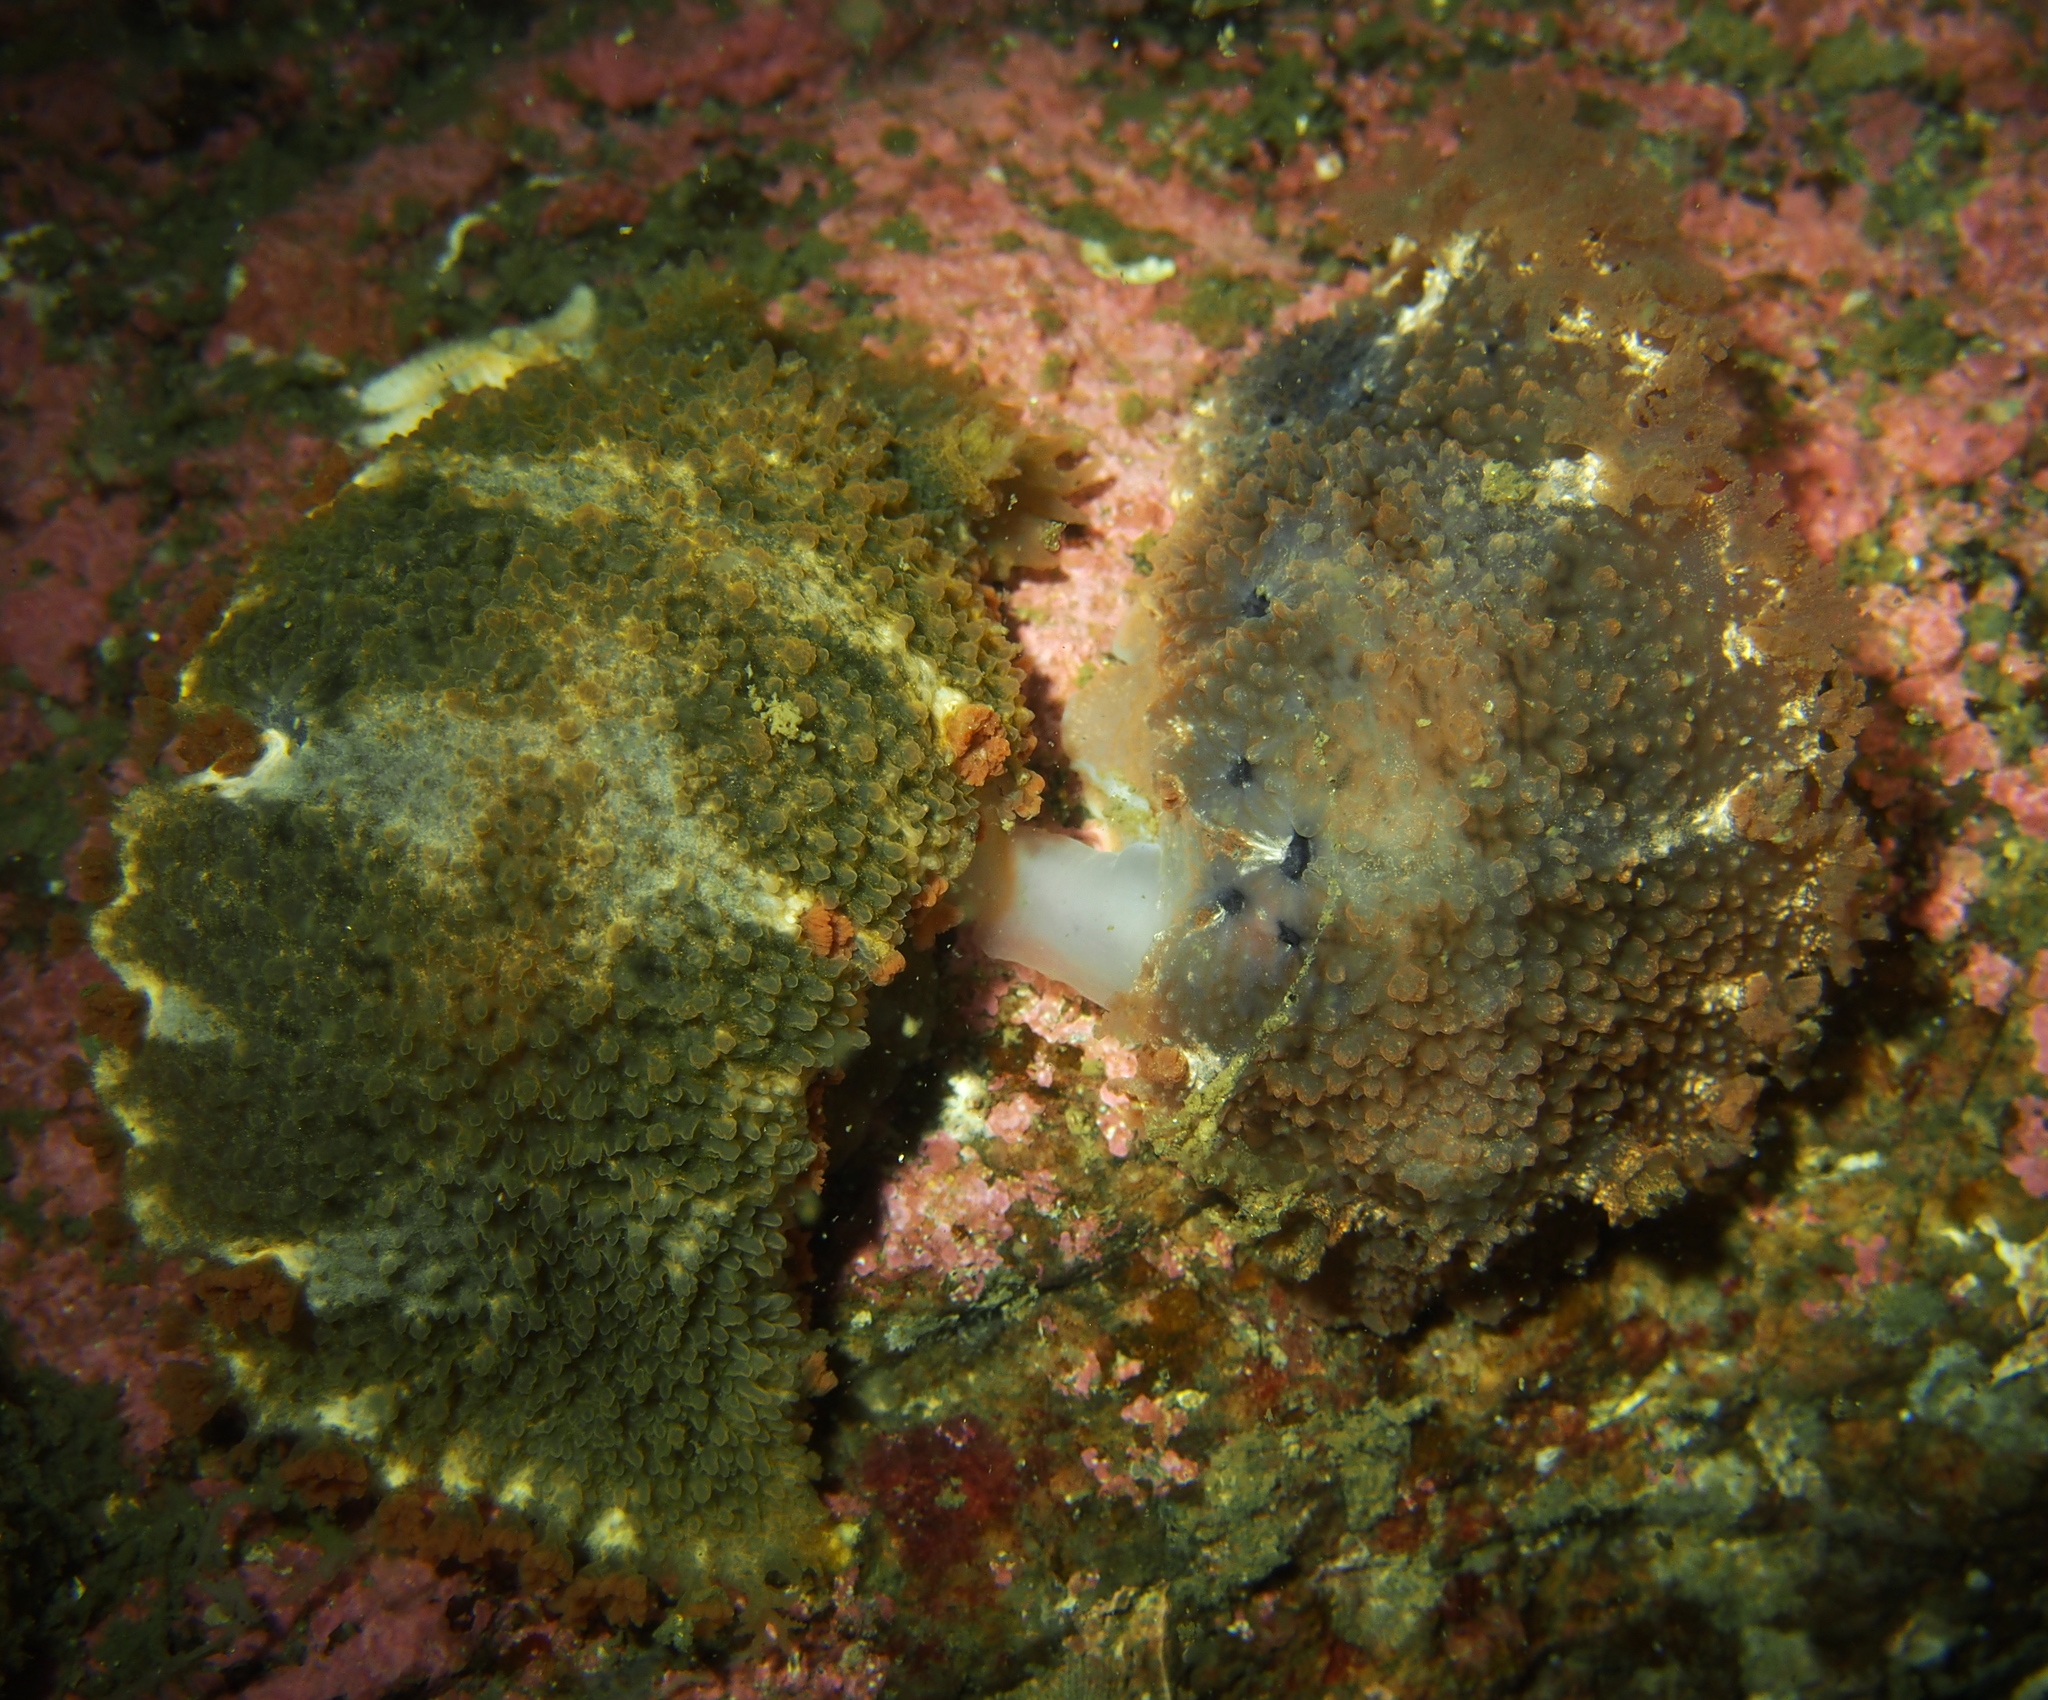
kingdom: Animalia
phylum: Mollusca
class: Gastropoda
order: Nudibranchia
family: Tritoniidae
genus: Tritonia
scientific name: Tritonia hombergii
